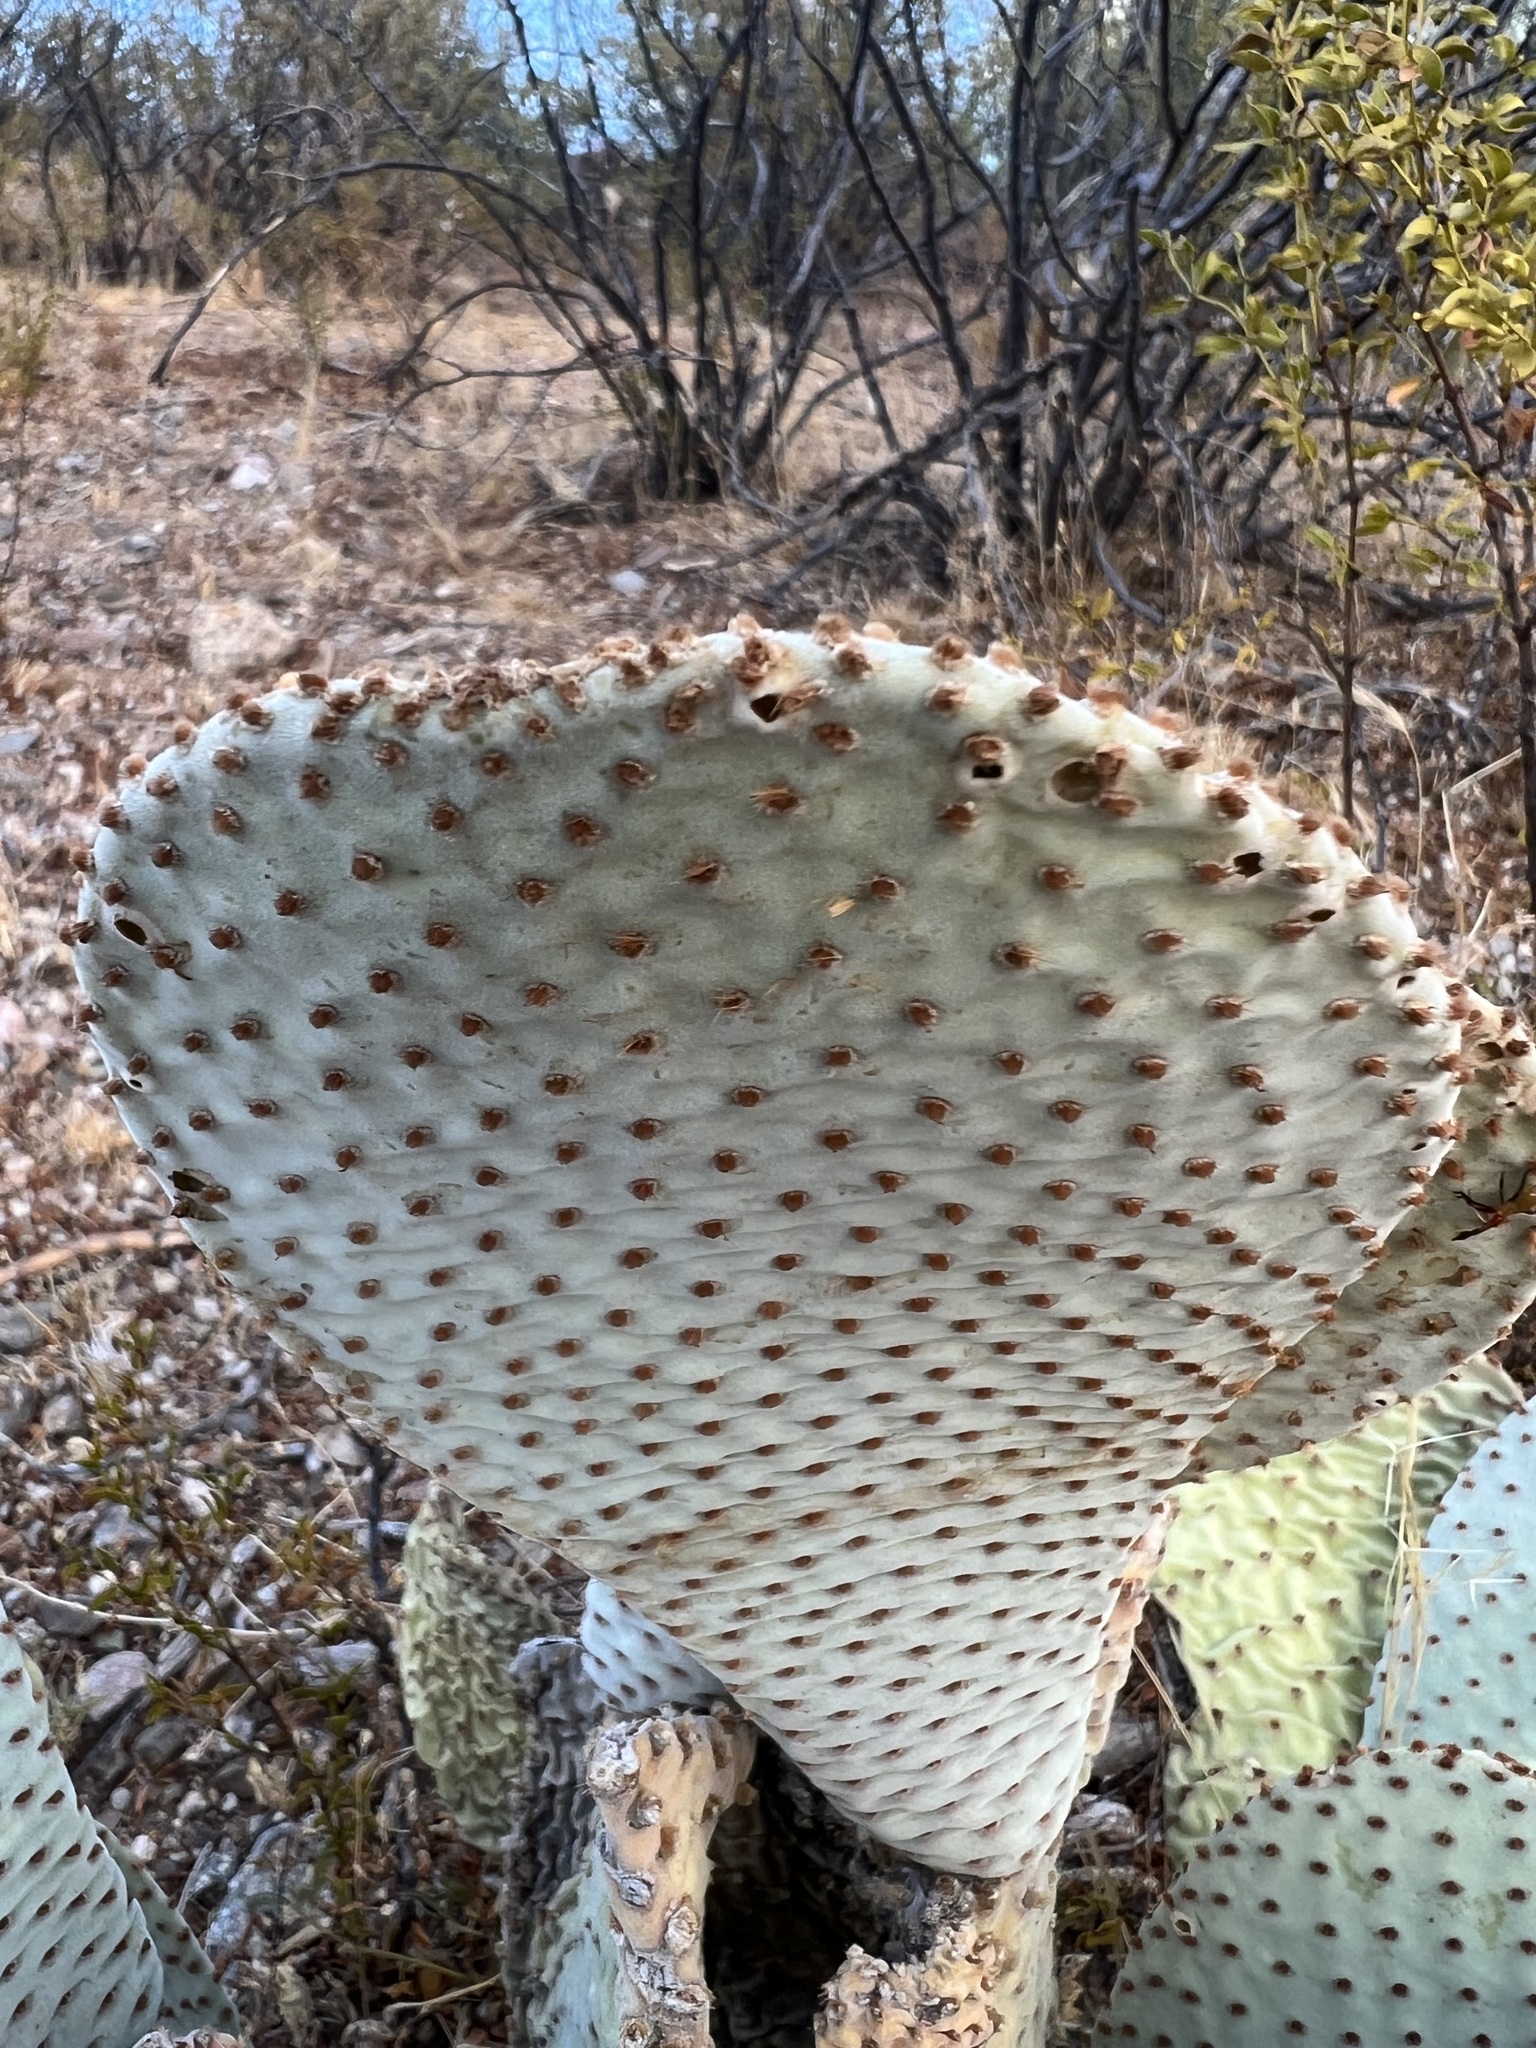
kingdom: Plantae
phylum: Tracheophyta
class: Magnoliopsida
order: Caryophyllales
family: Cactaceae
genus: Opuntia
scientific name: Opuntia basilaris
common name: Beavertail prickly-pear
